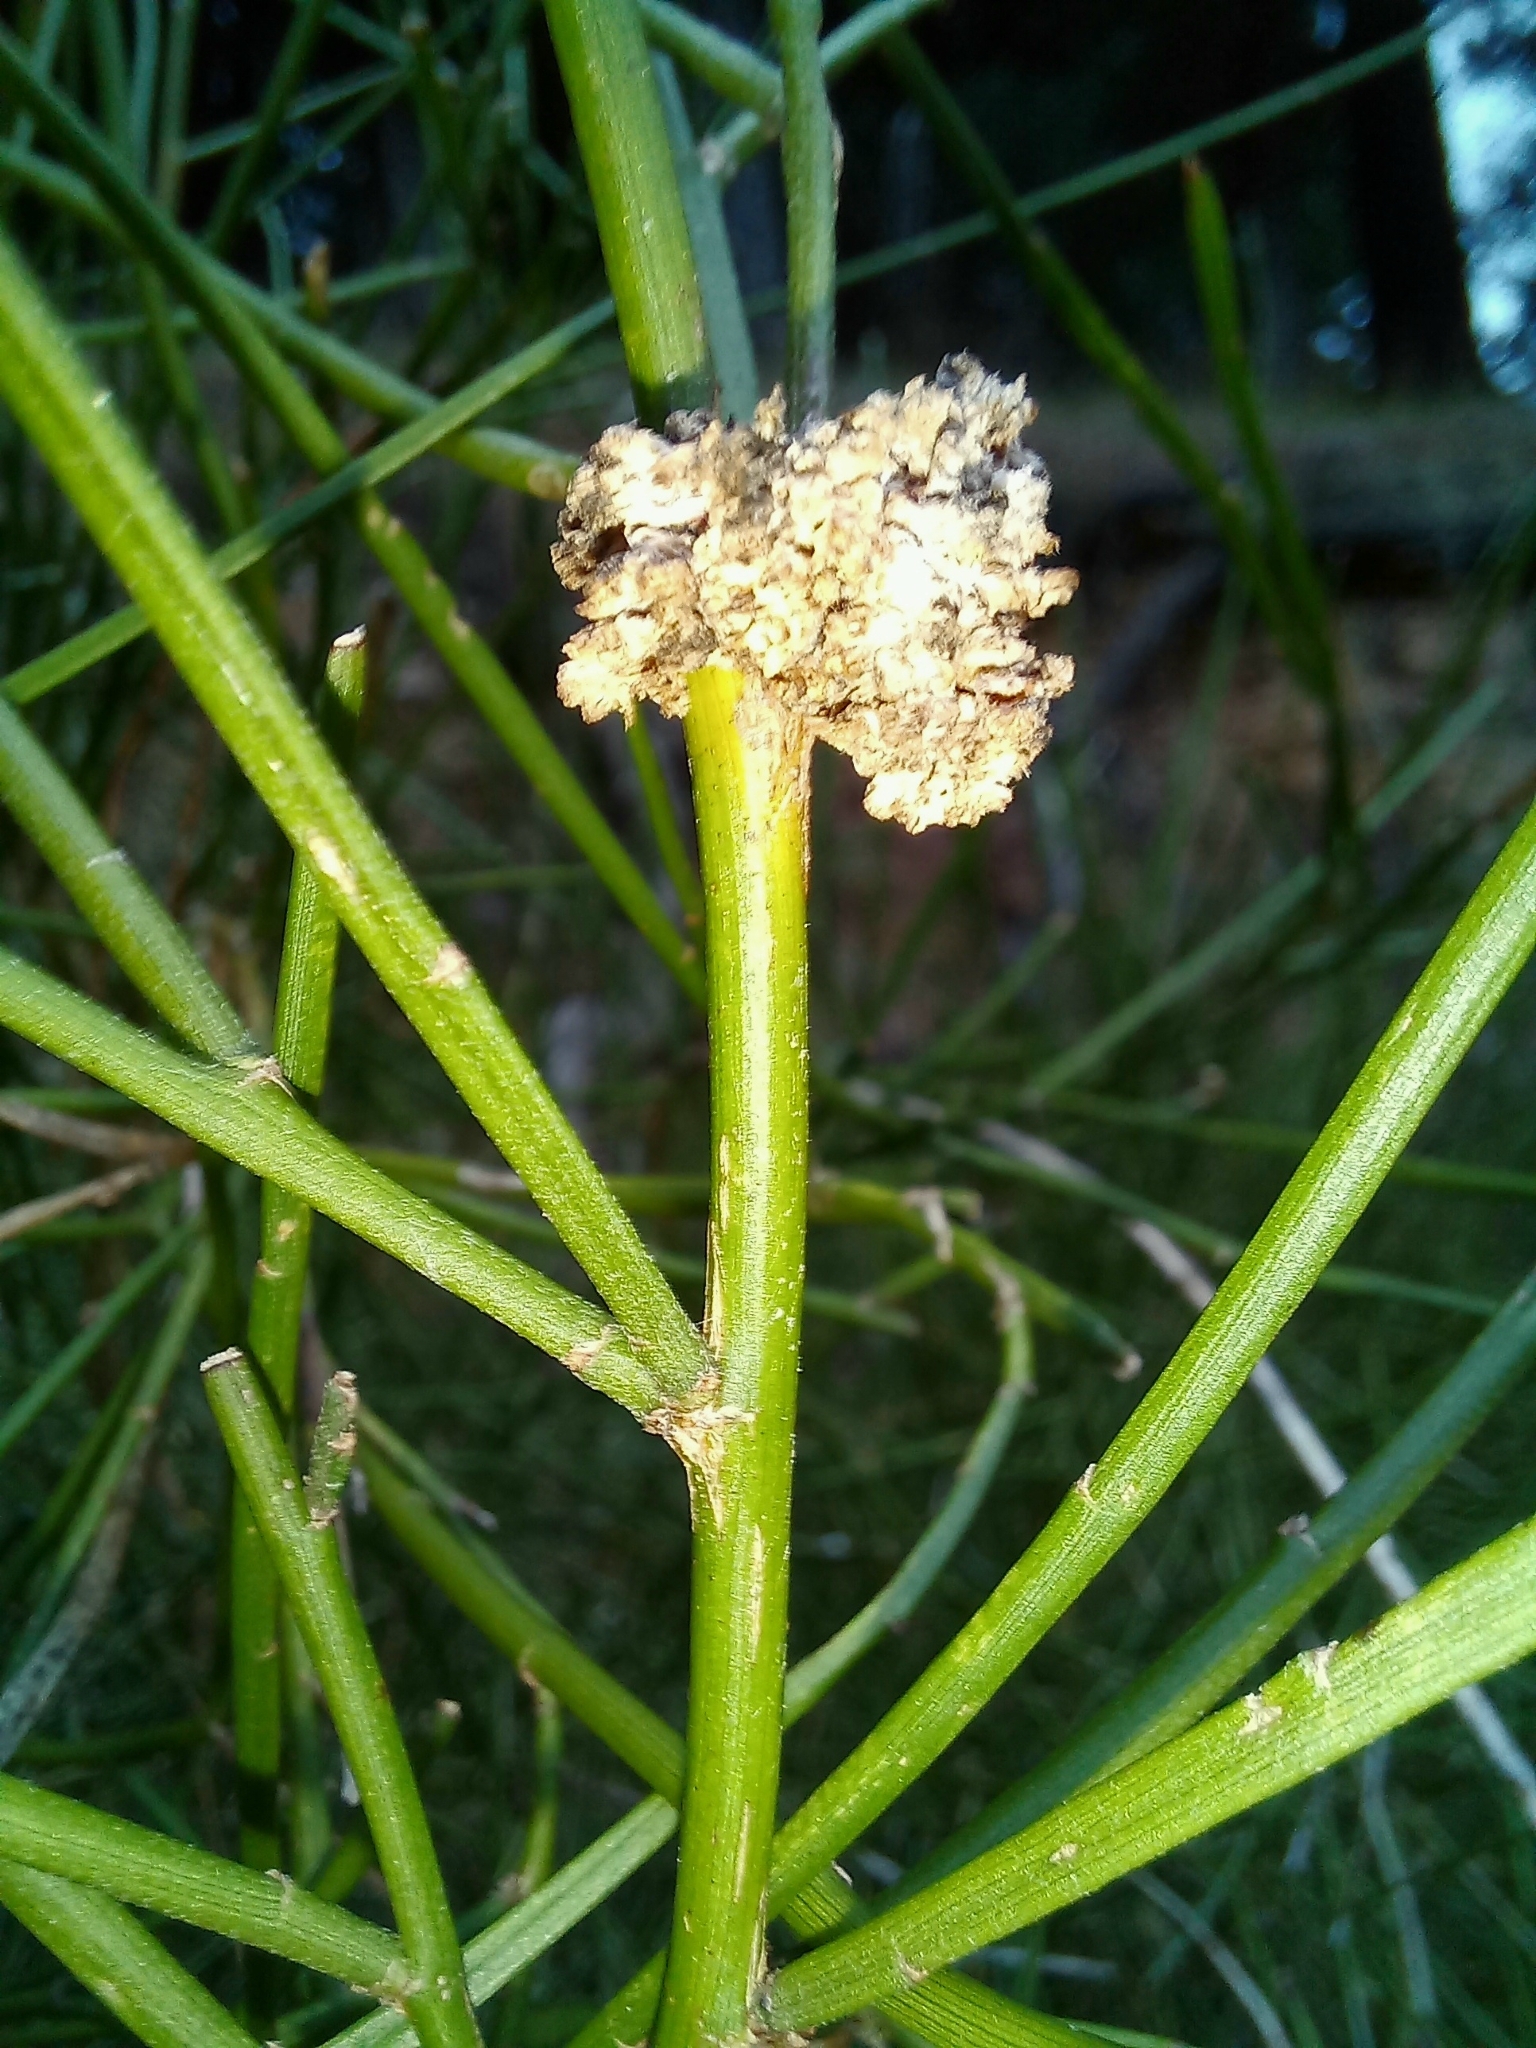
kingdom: Animalia
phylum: Arthropoda
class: Arachnida
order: Trombidiformes
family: Eriophyidae
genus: Aceria
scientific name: Aceria carmichaeliae
